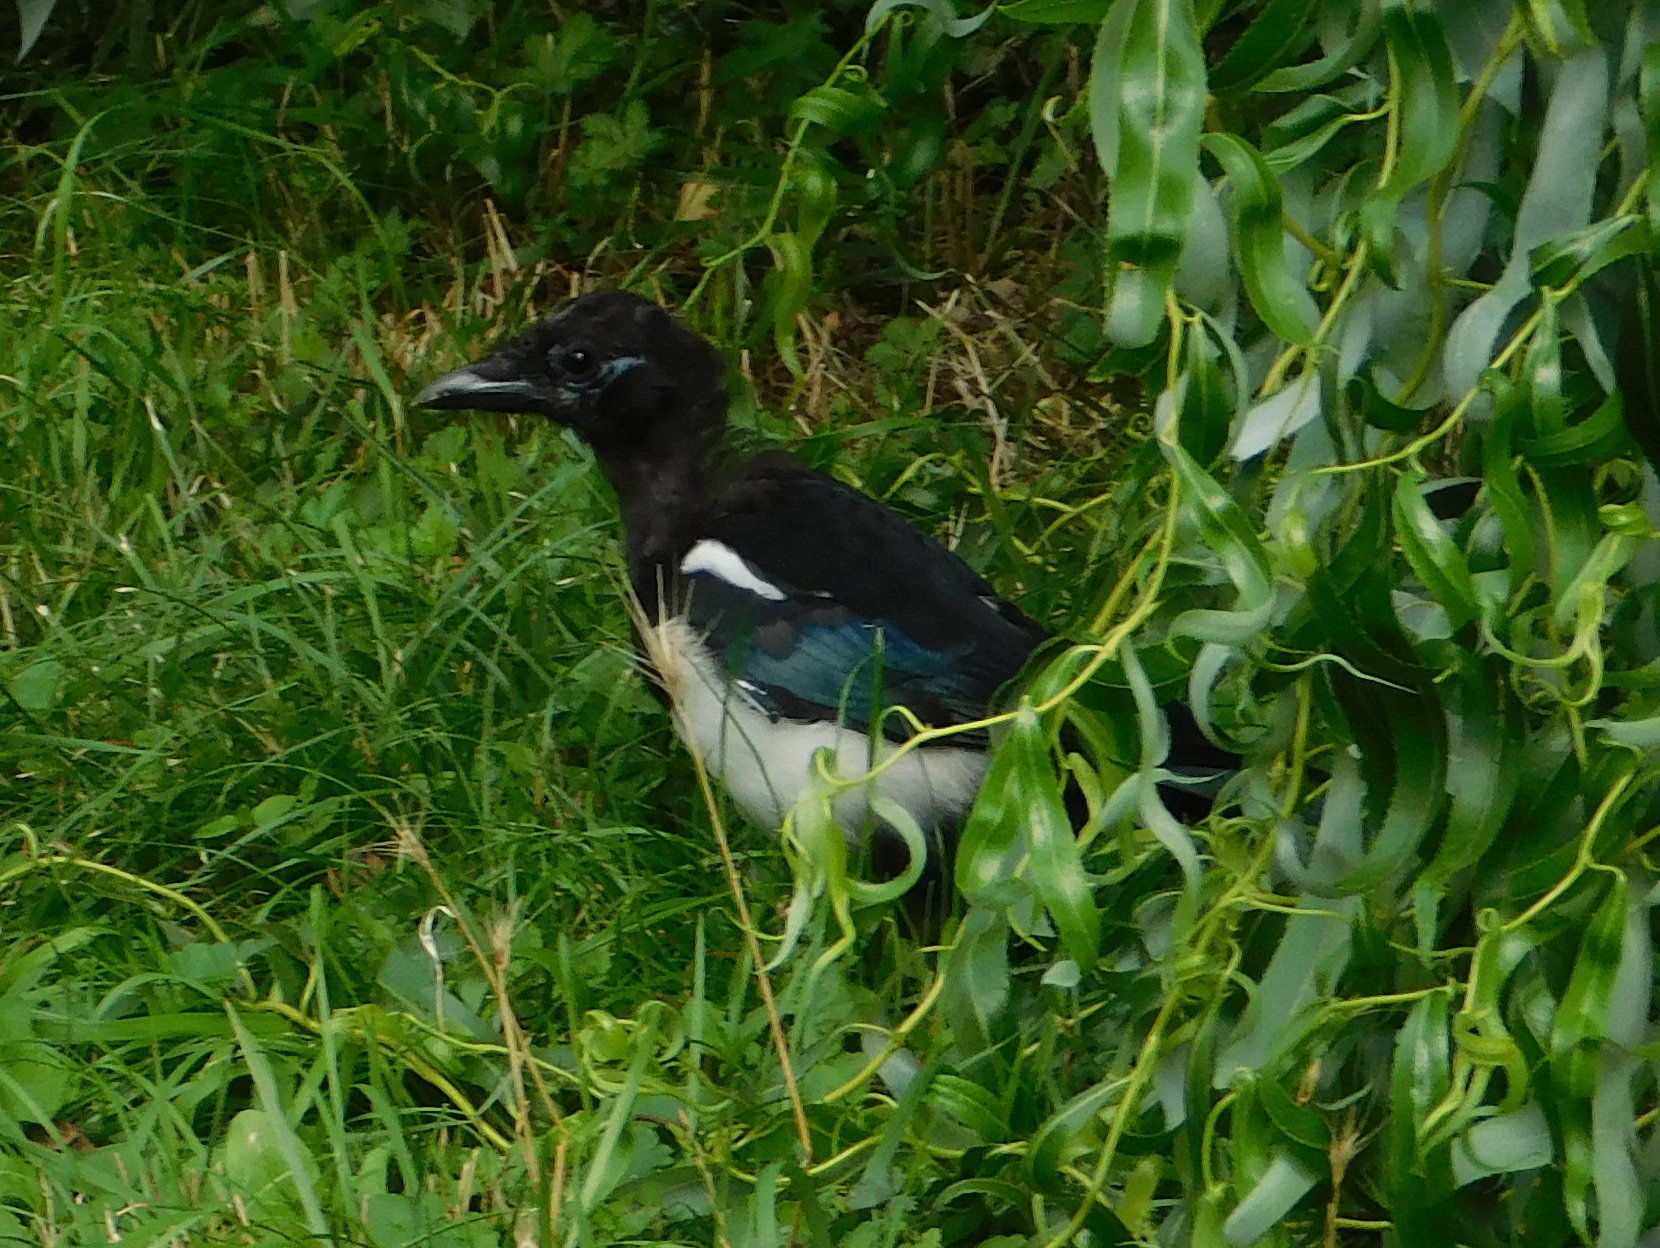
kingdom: Animalia
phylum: Chordata
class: Aves
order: Passeriformes
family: Corvidae
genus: Pica
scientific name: Pica pica
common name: Eurasian magpie
